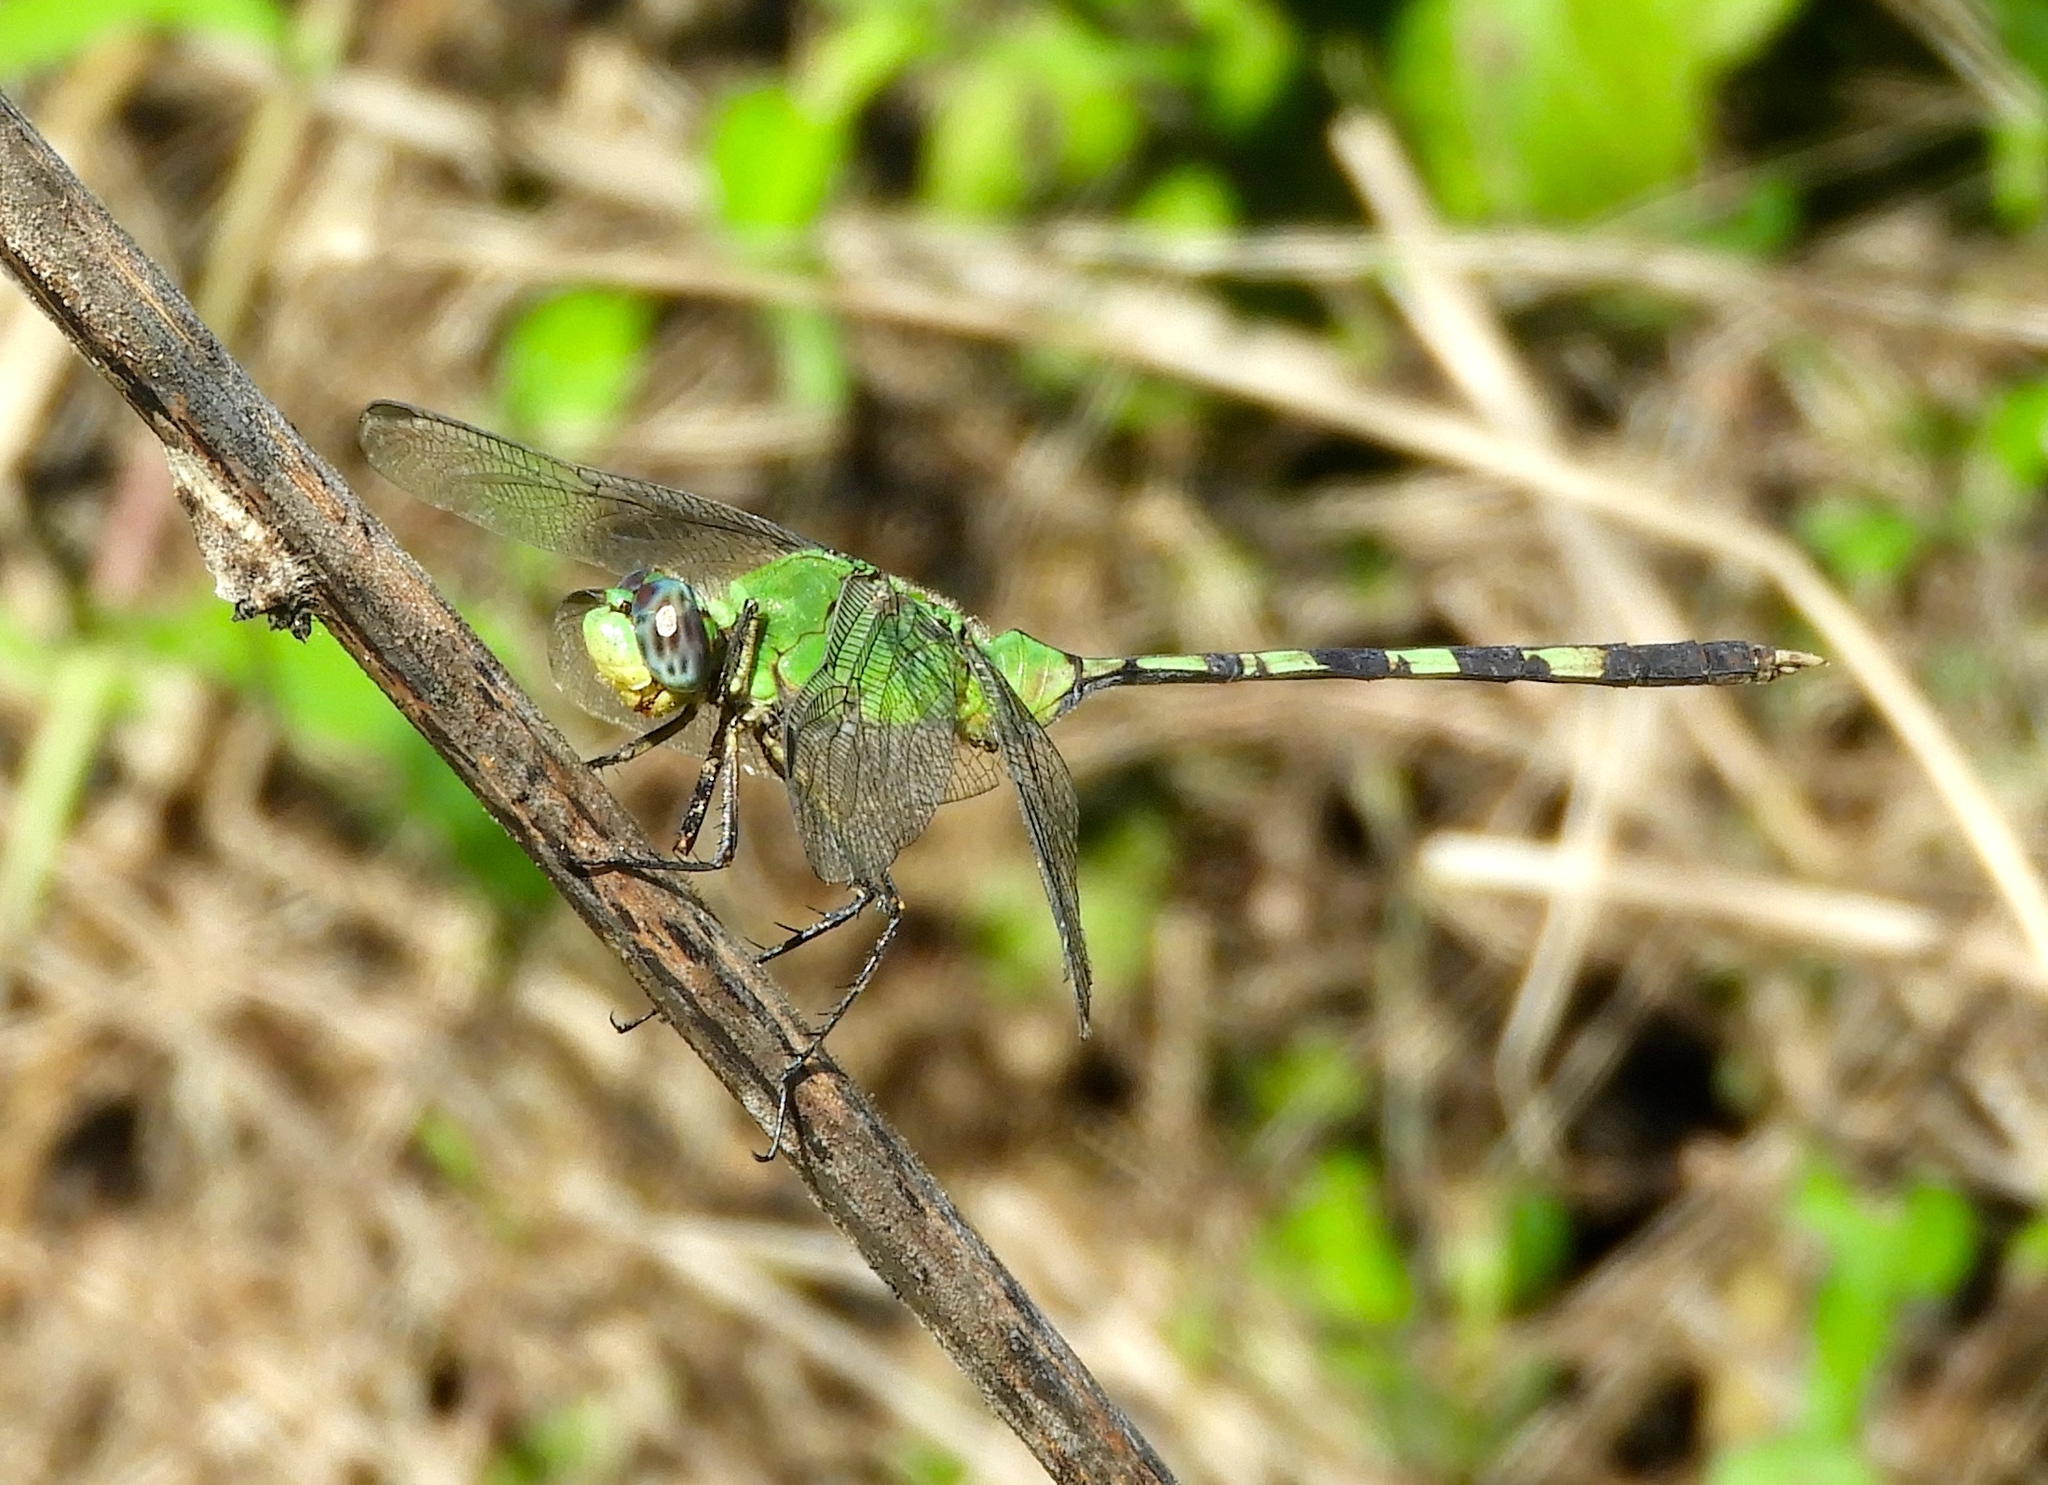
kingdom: Animalia
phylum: Arthropoda
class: Insecta
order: Odonata
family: Libellulidae
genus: Erythemis
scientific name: Erythemis vesiculosa
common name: Great pondhawk
